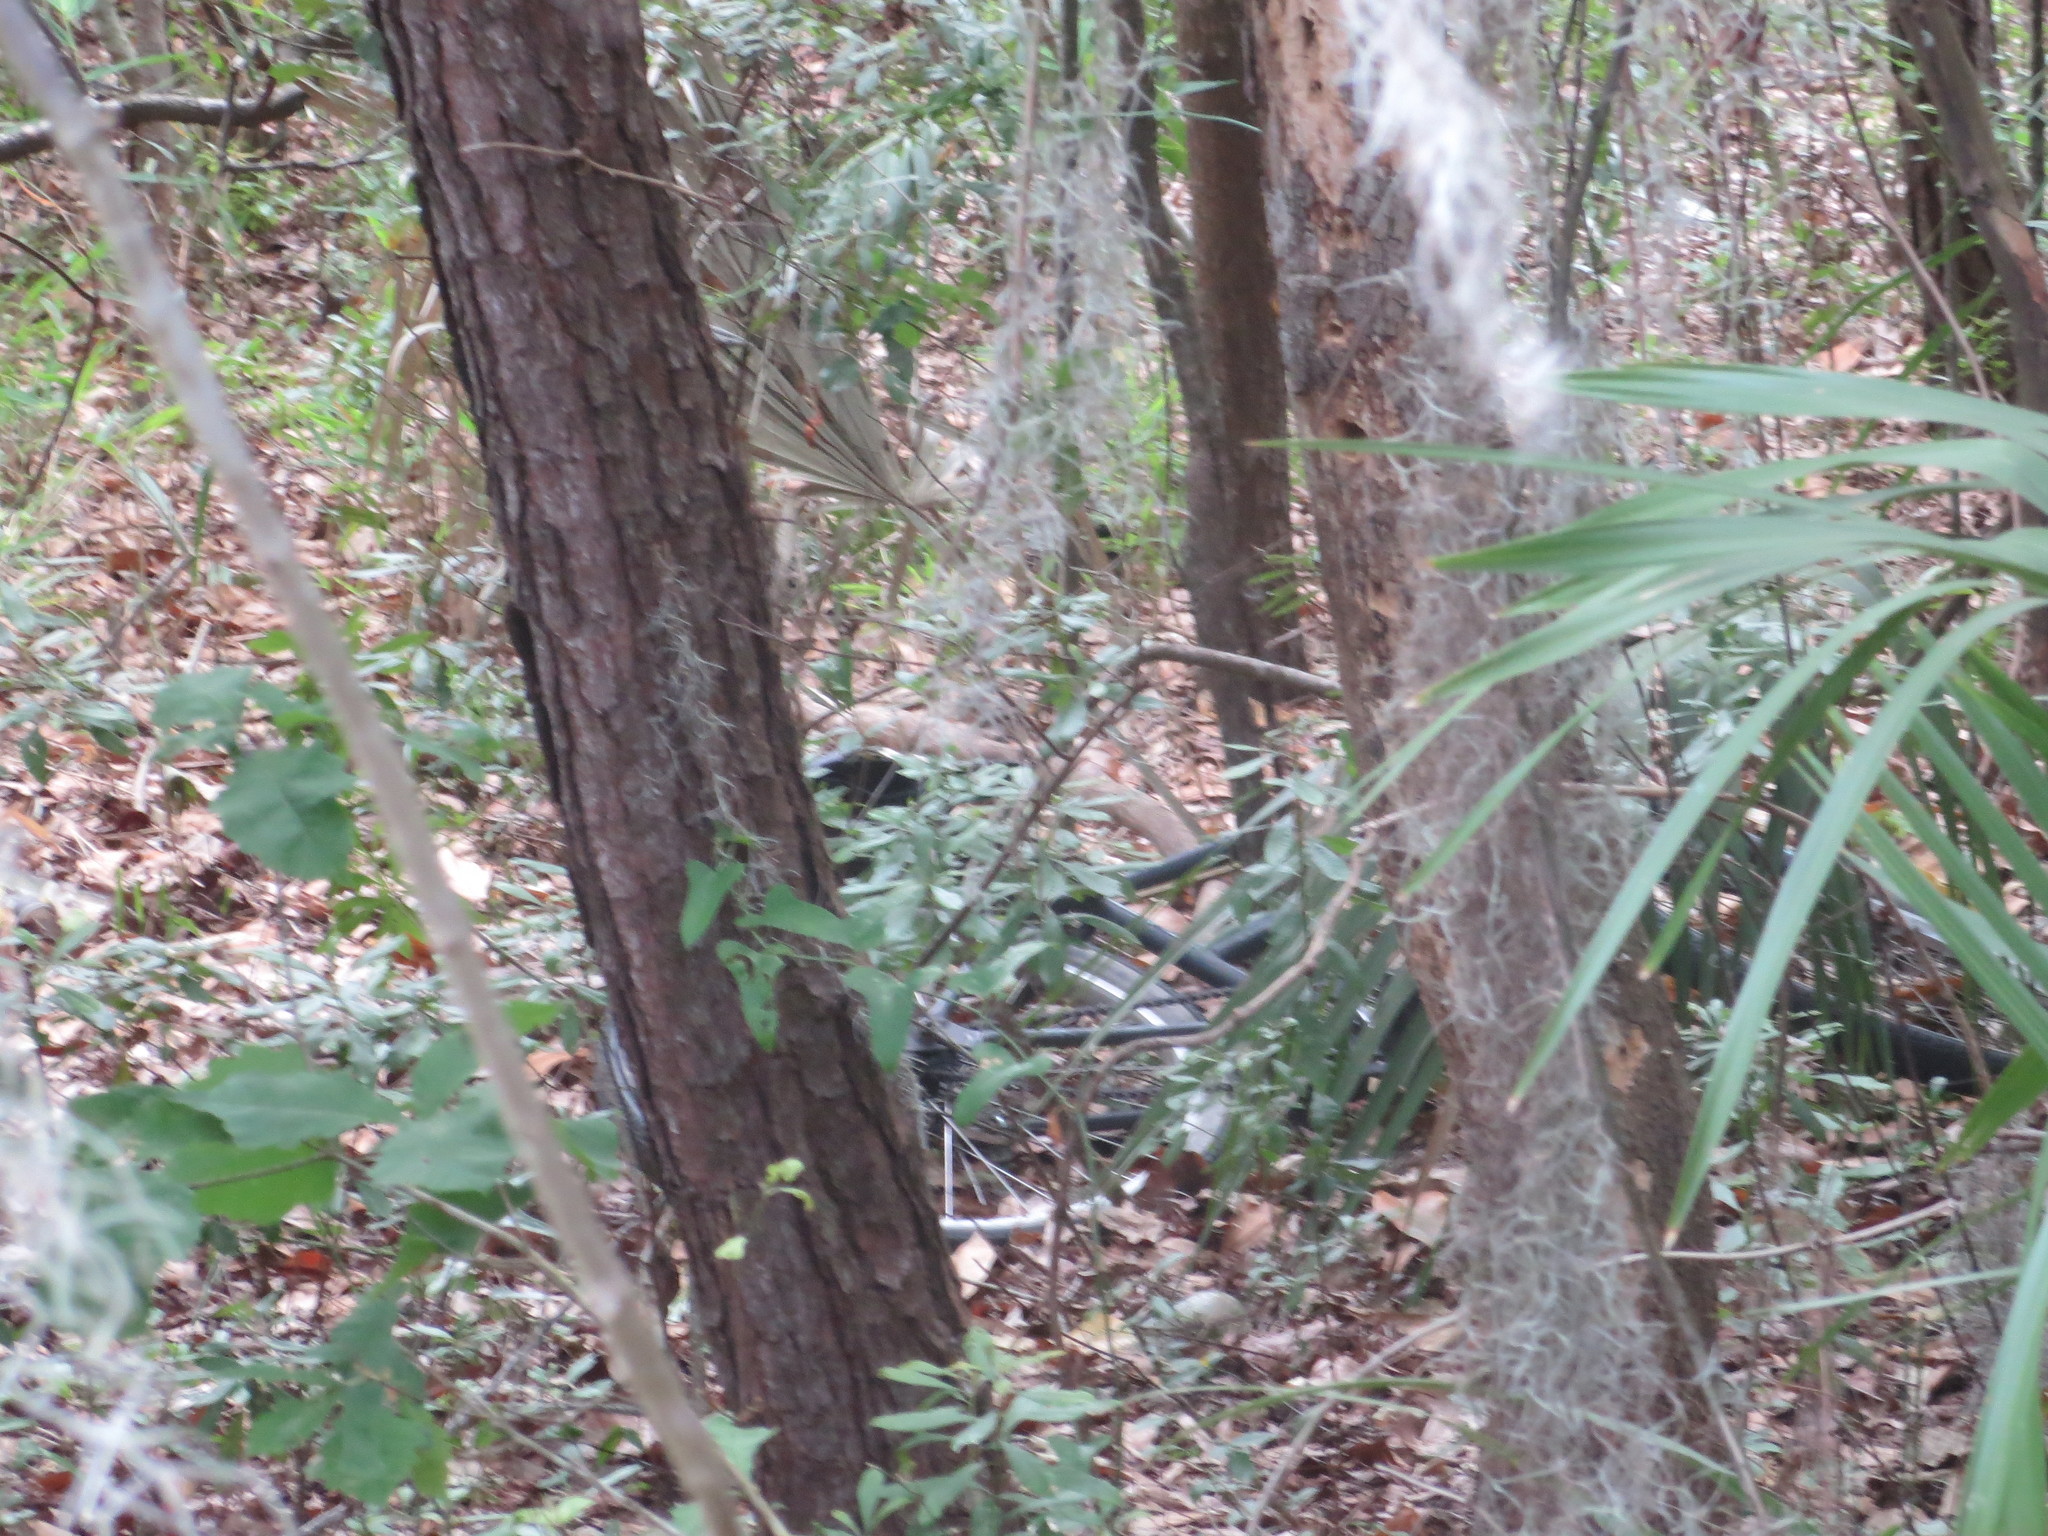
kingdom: Plantae
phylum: Tracheophyta
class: Liliopsida
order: Poales
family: Bromeliaceae
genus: Tillandsia
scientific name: Tillandsia usneoides
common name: Spanish moss
